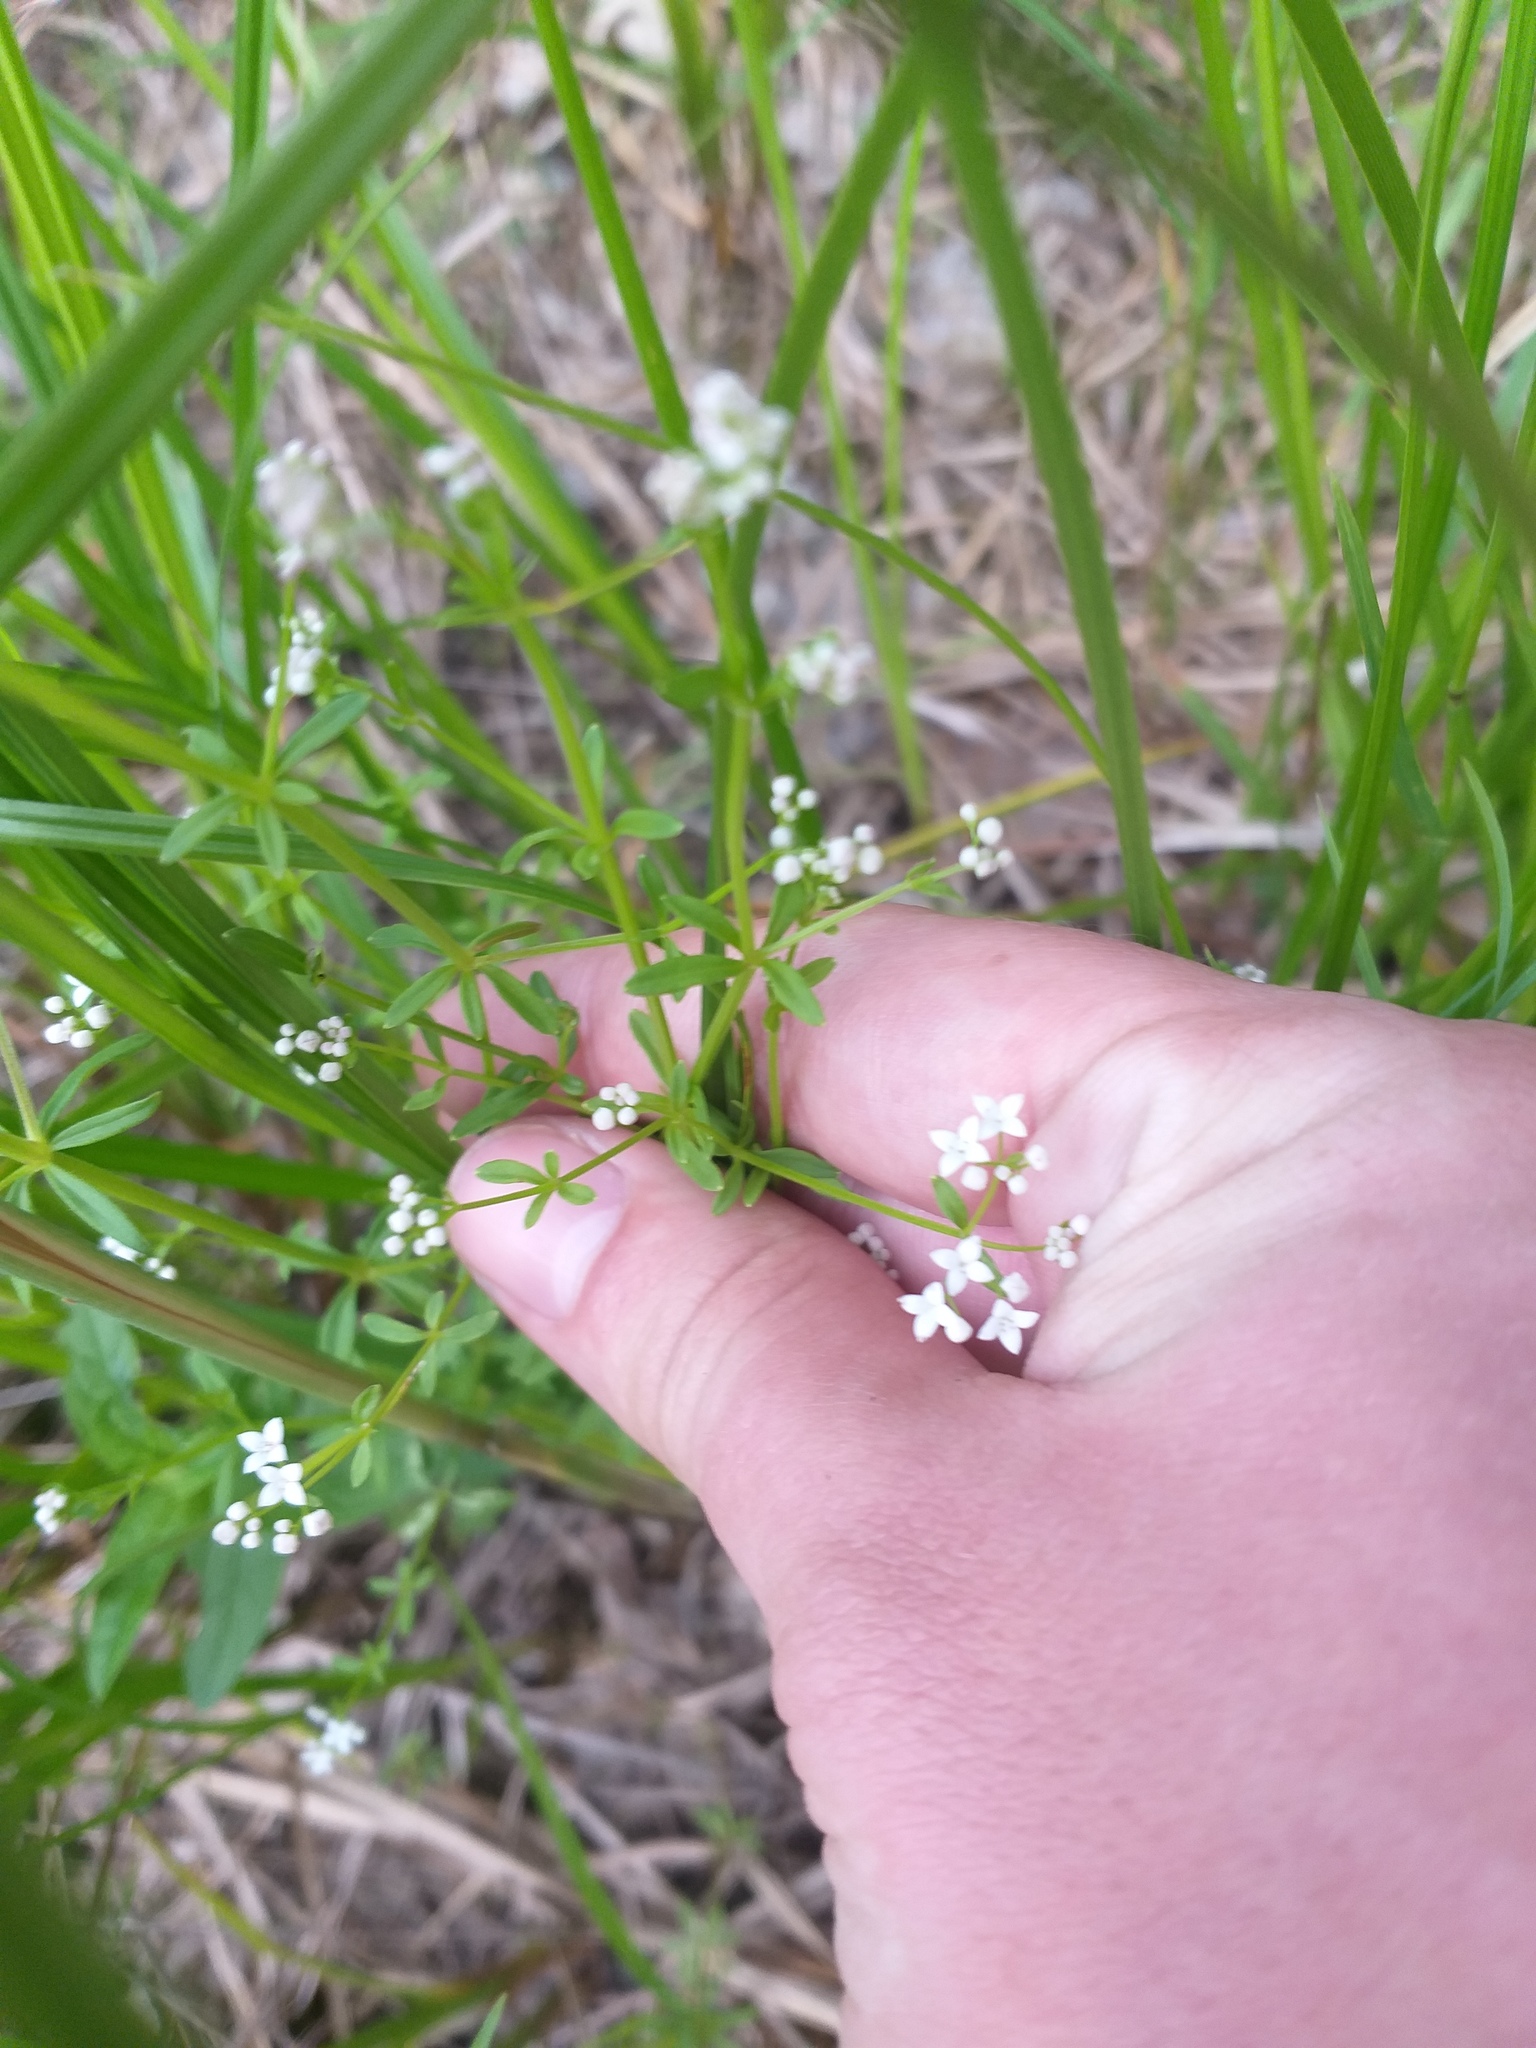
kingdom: Plantae
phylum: Tracheophyta
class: Magnoliopsida
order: Gentianales
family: Rubiaceae
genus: Galium
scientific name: Galium palustre
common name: Common marsh-bedstraw
